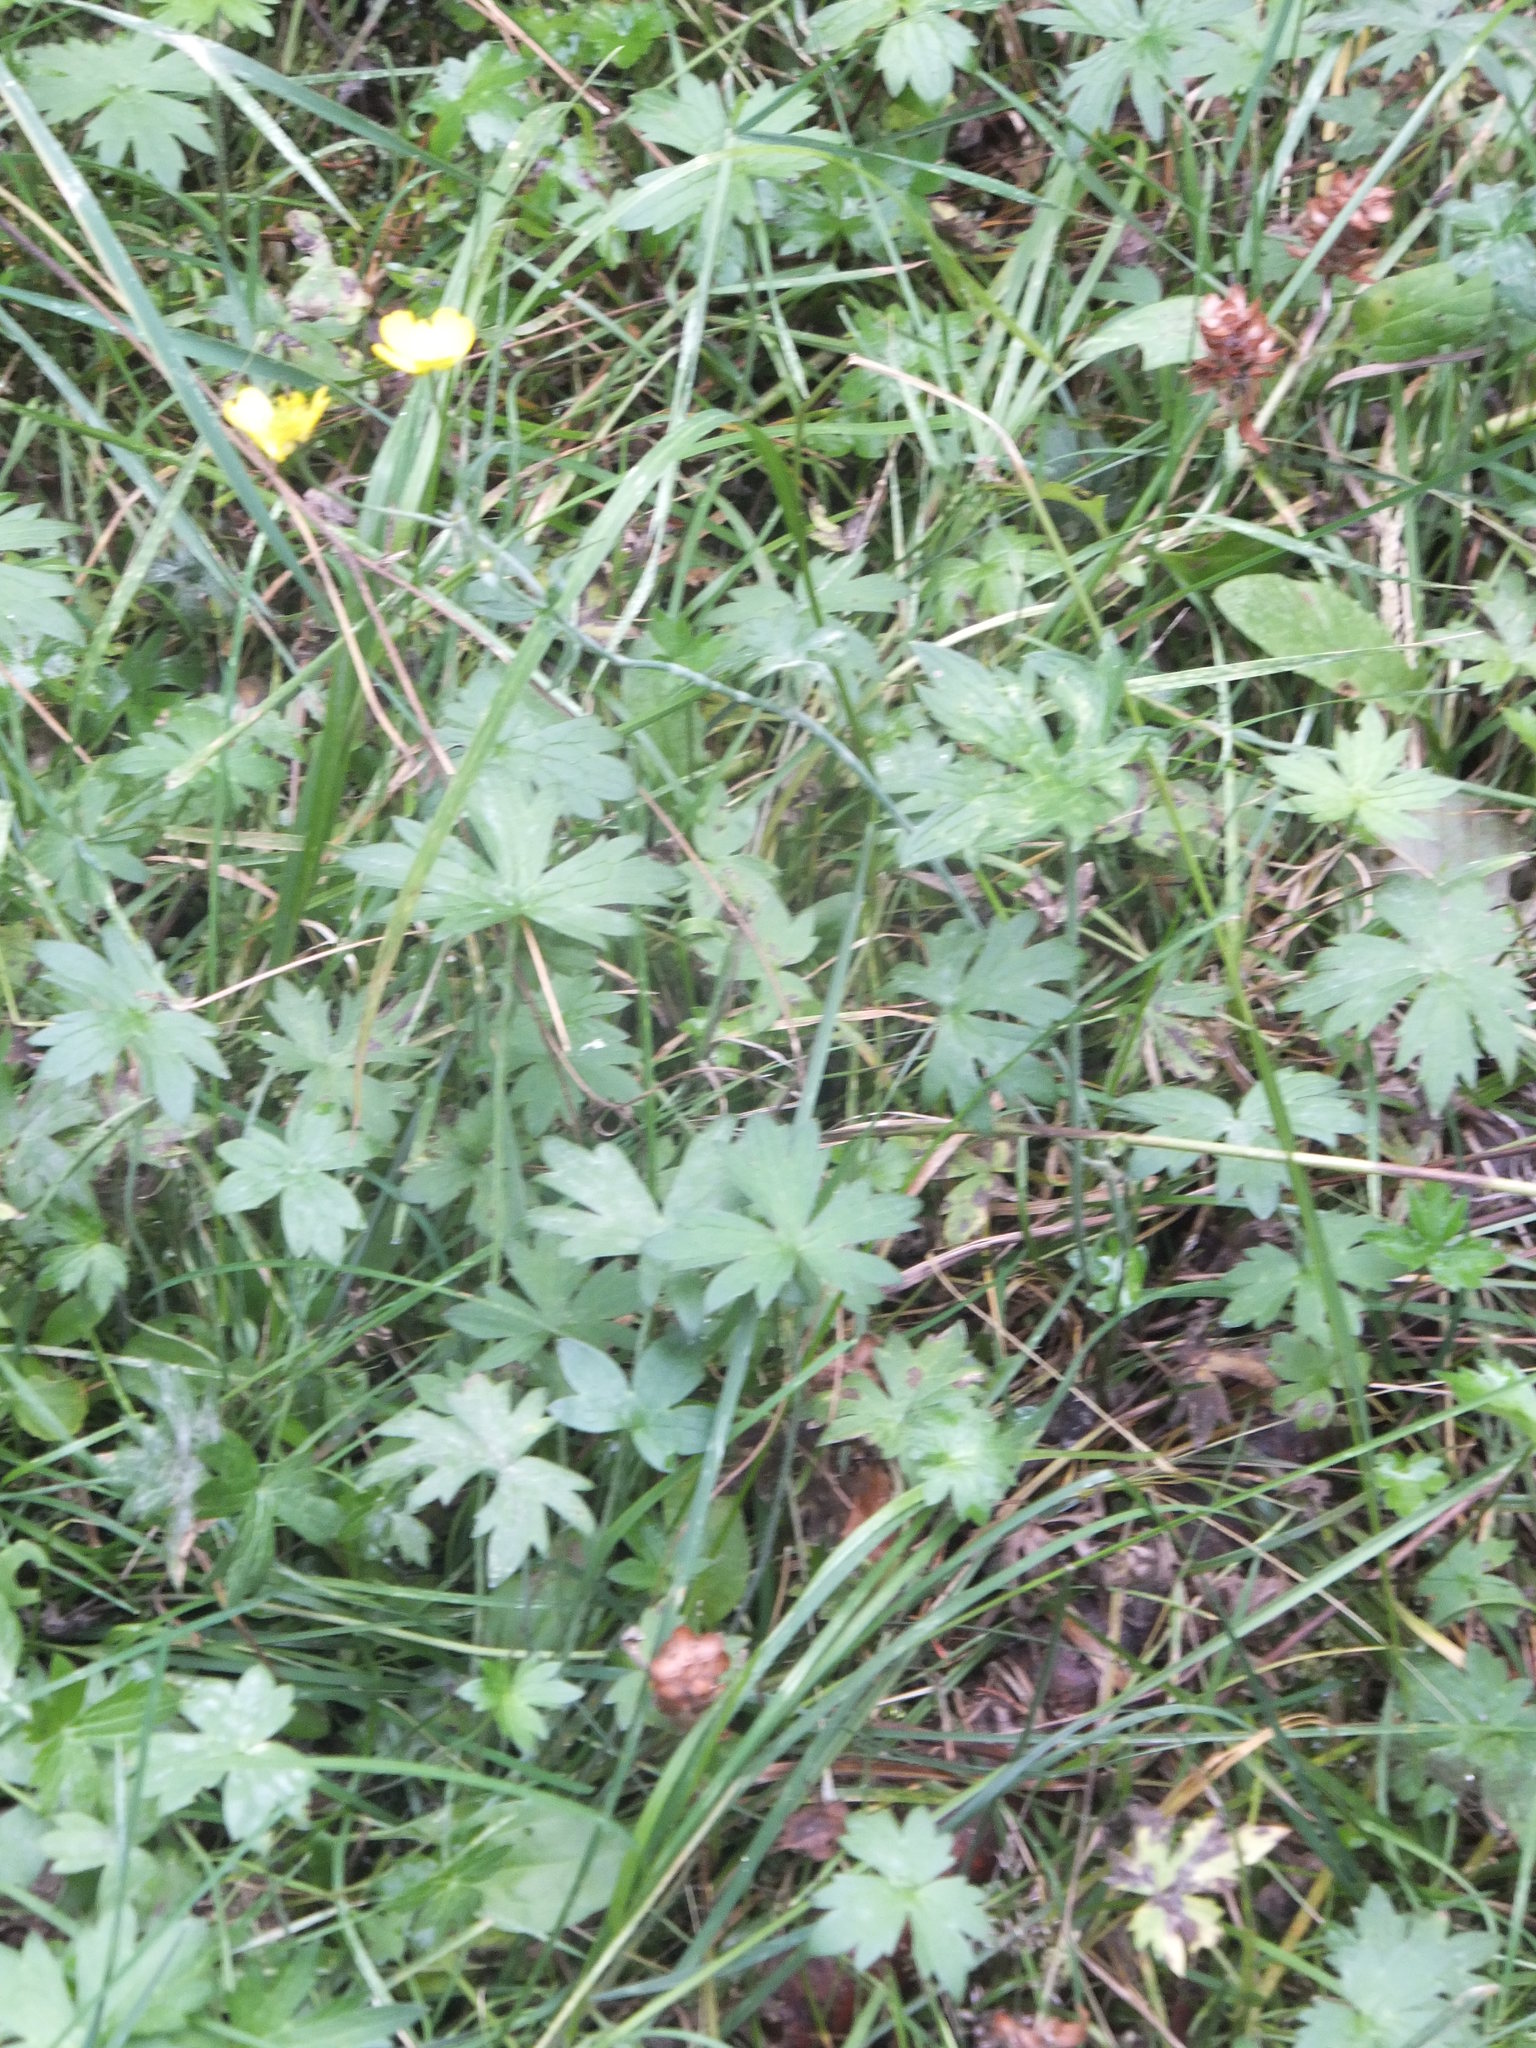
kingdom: Plantae
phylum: Tracheophyta
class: Magnoliopsida
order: Ranunculales
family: Ranunculaceae
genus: Ranunculus
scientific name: Ranunculus acris
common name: Meadow buttercup
